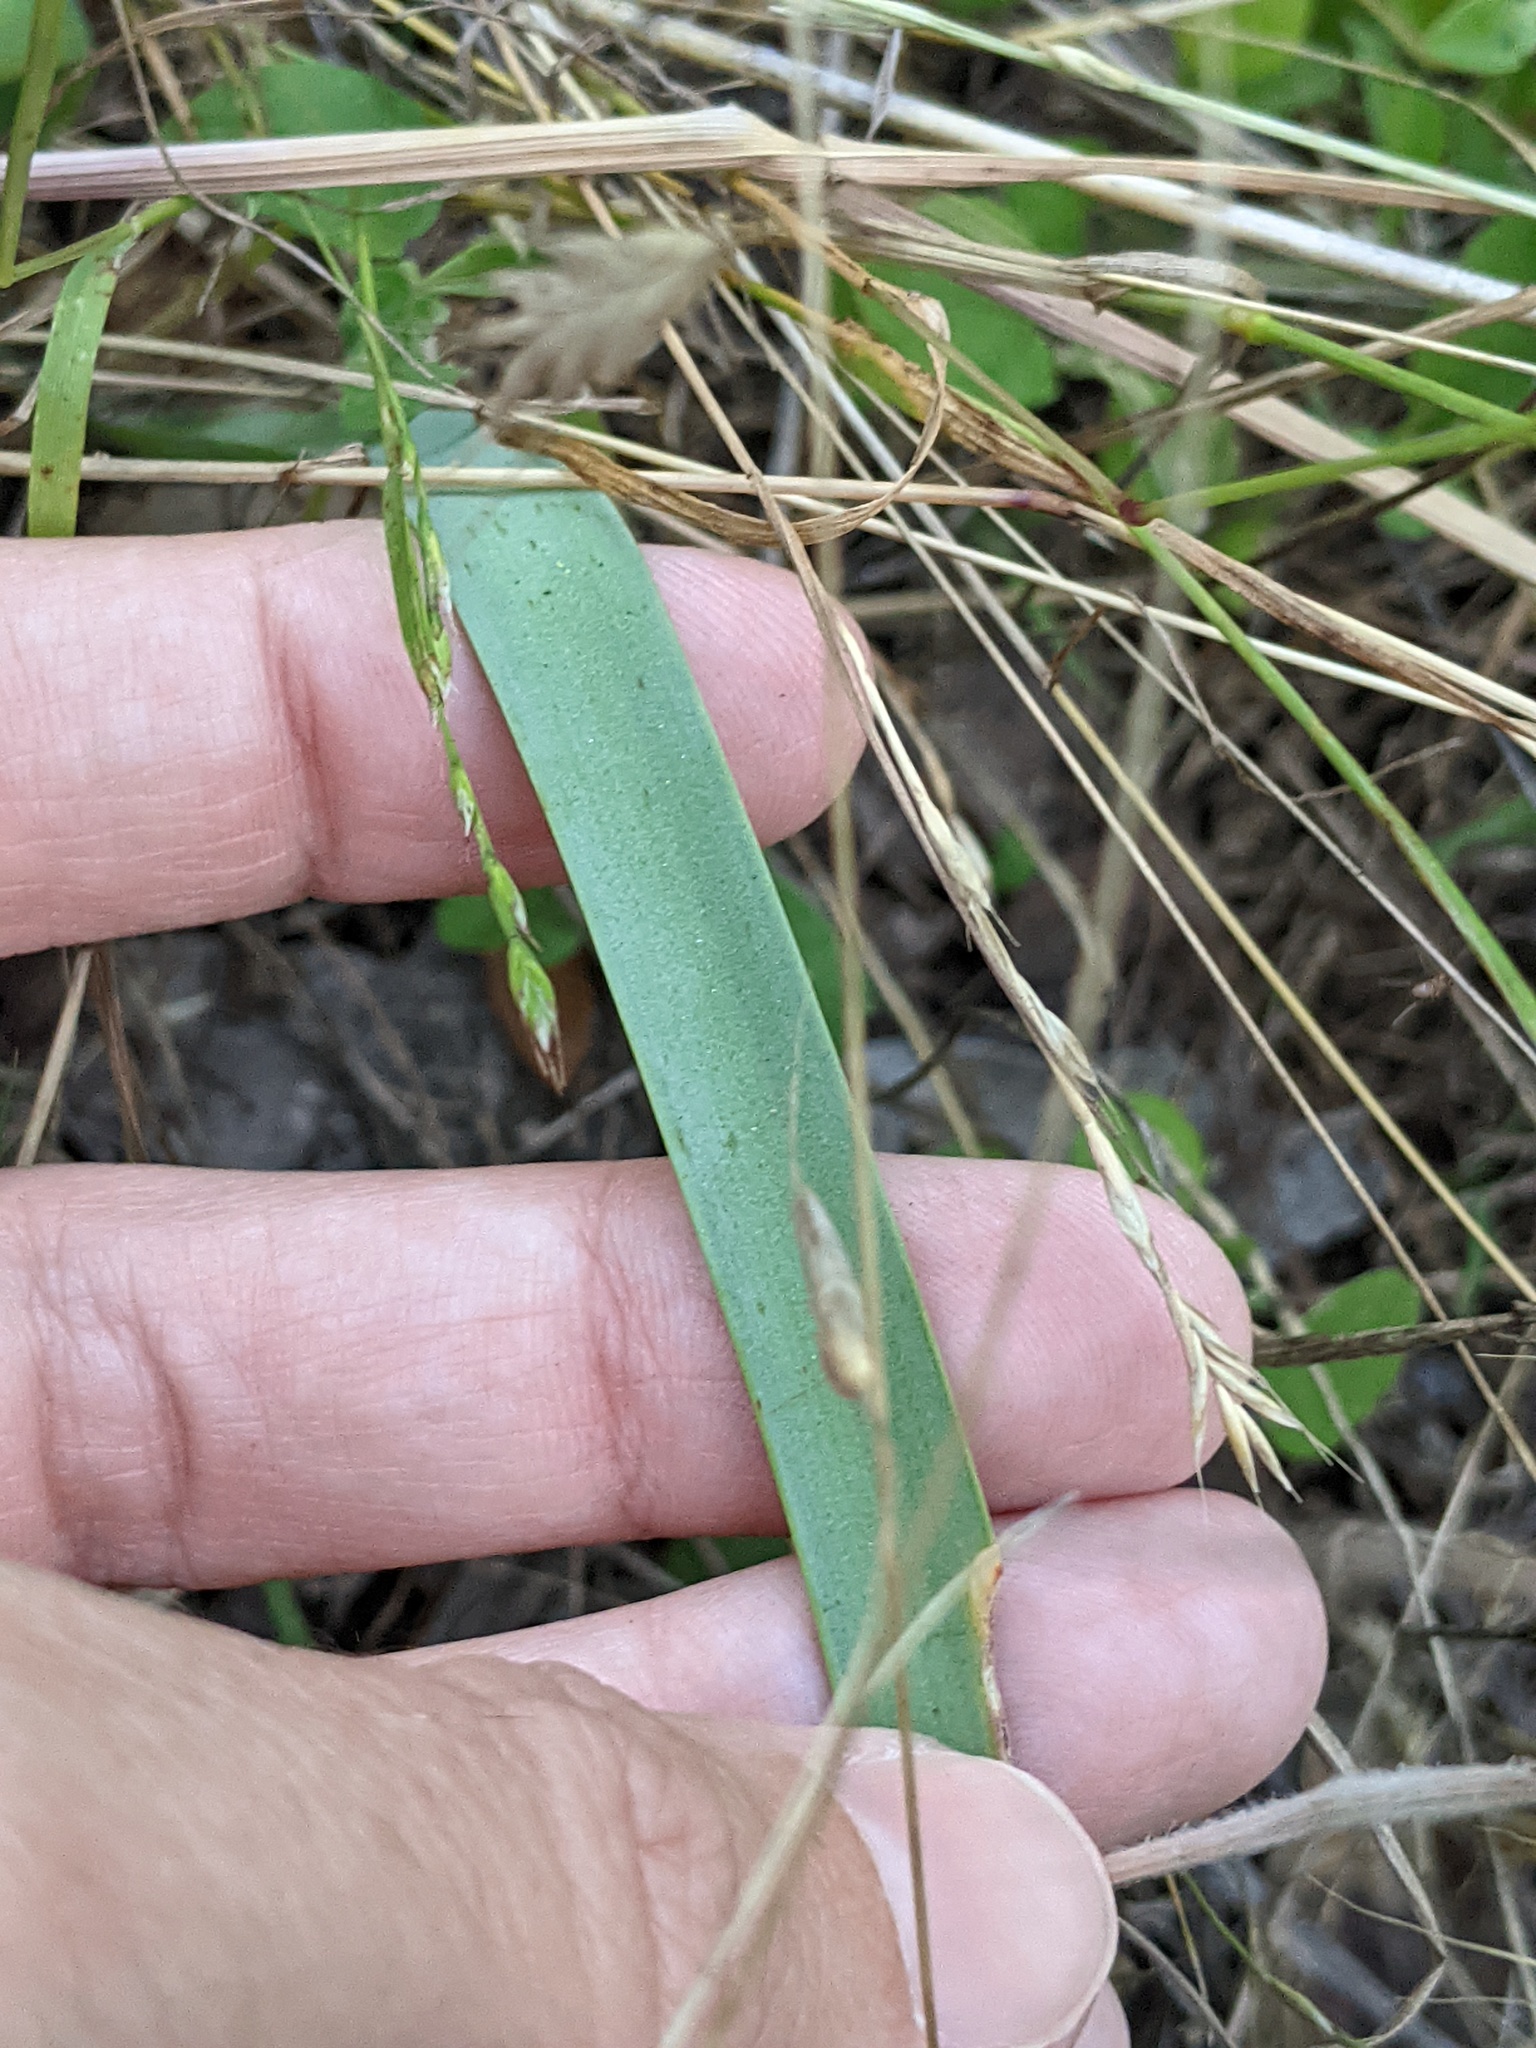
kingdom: Plantae
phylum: Tracheophyta
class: Liliopsida
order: Asparagales
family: Amaryllidaceae
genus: Zephyranthes
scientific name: Zephyranthes drummondii
